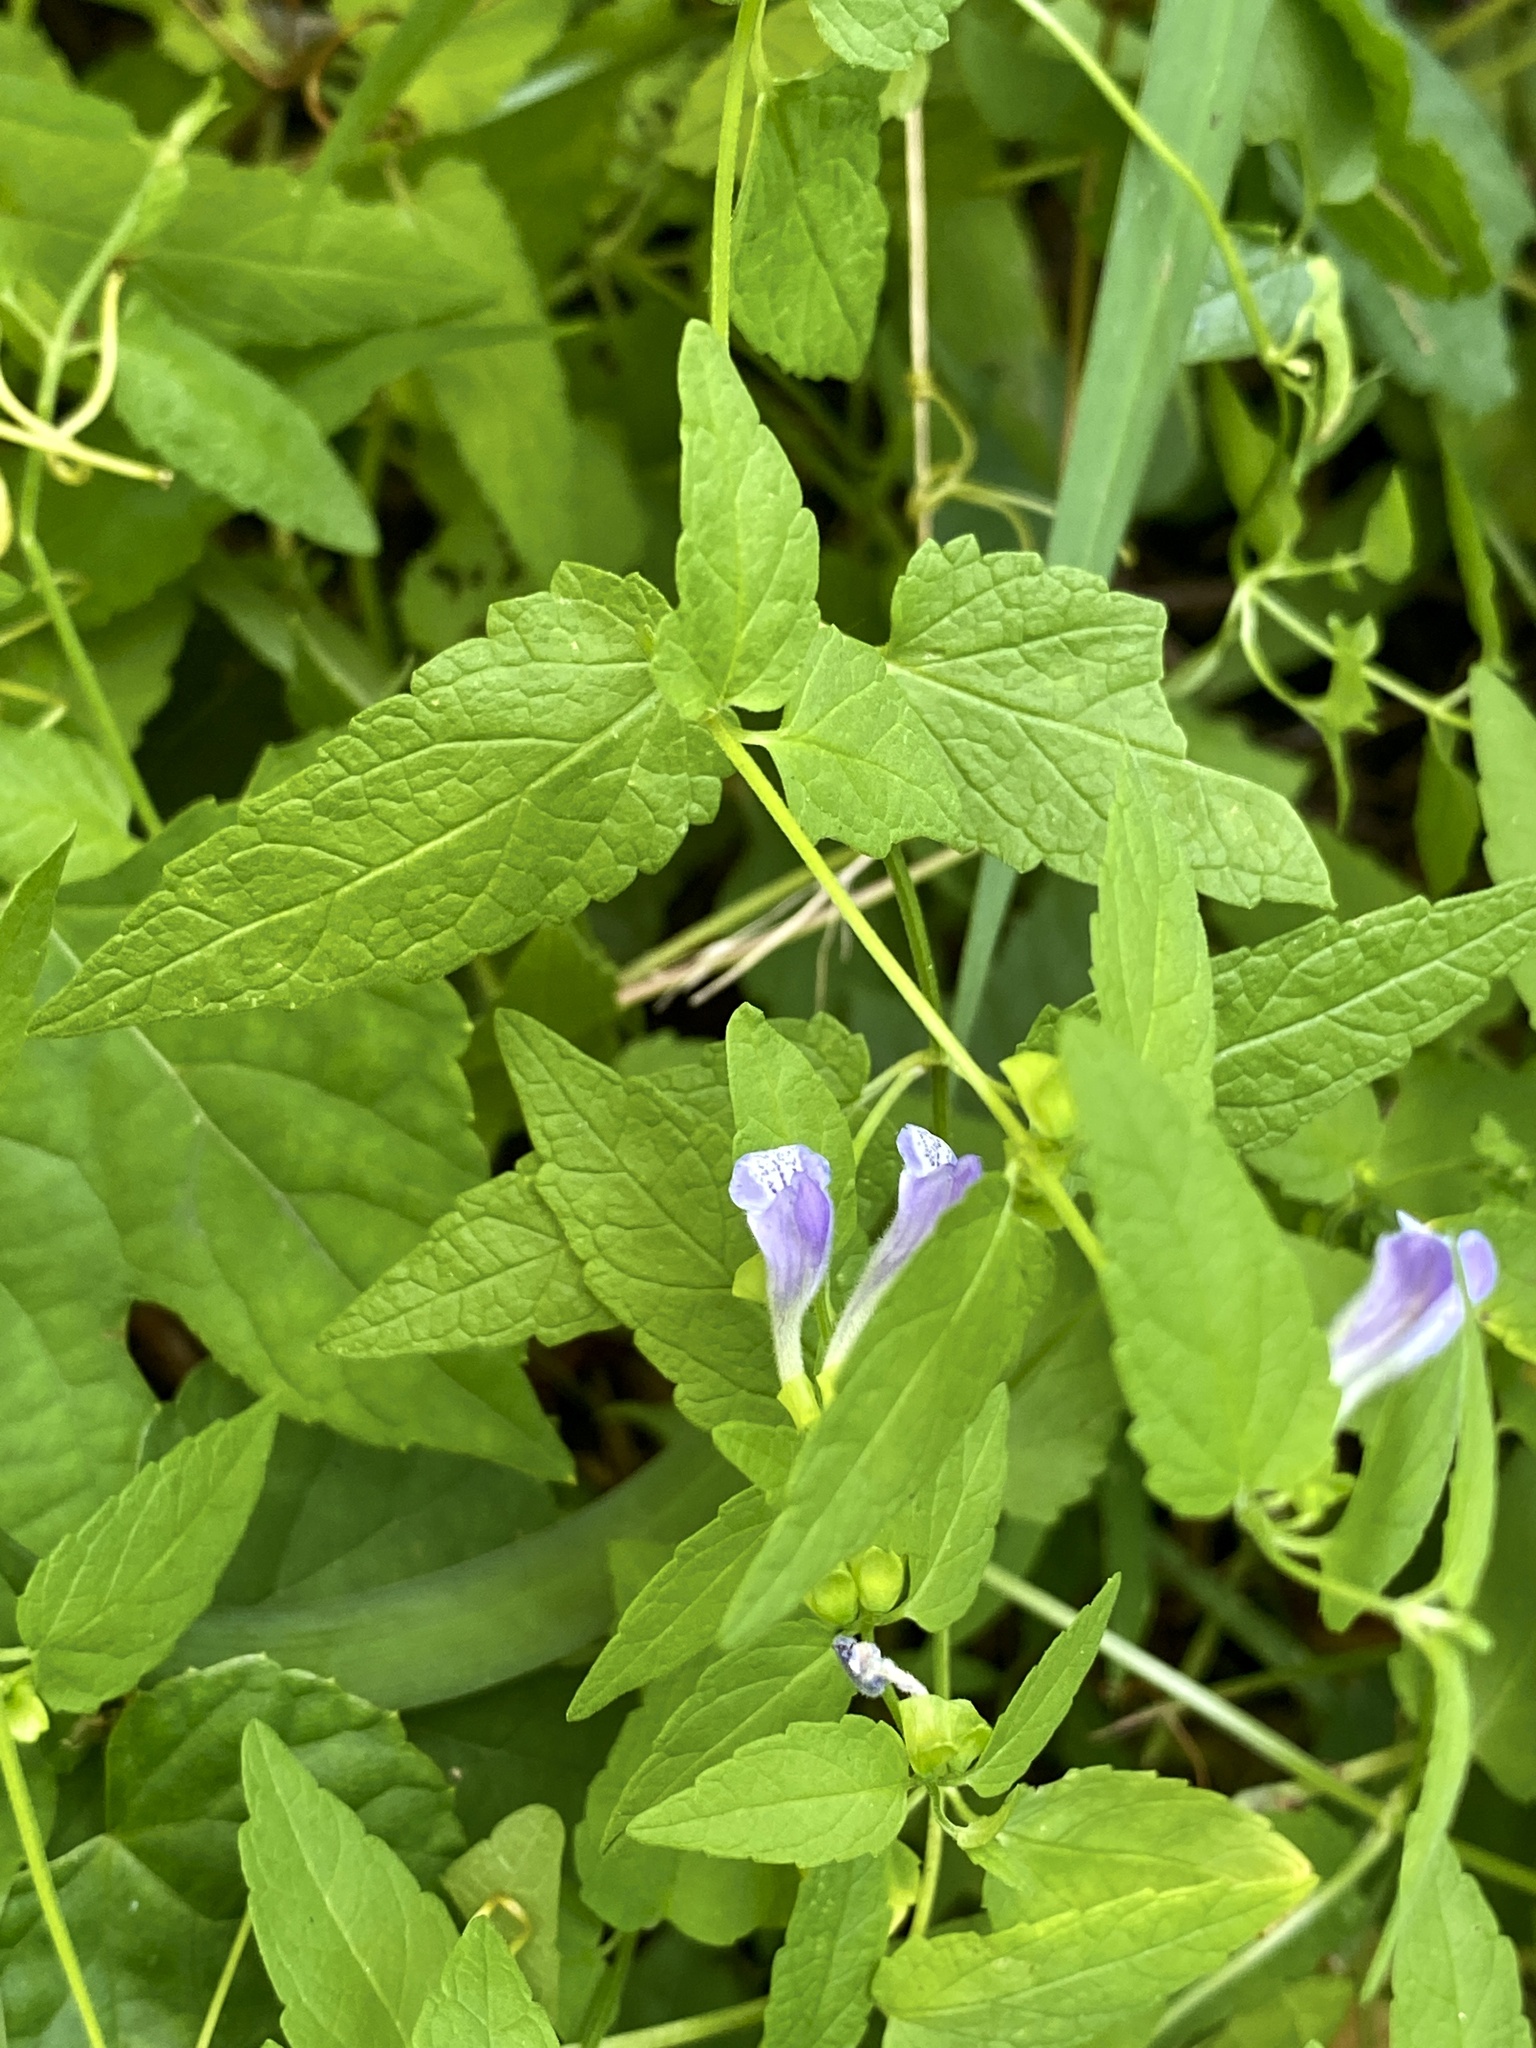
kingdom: Plantae
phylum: Tracheophyta
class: Magnoliopsida
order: Lamiales
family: Lamiaceae
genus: Scutellaria
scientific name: Scutellaria galericulata
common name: Skullcap
